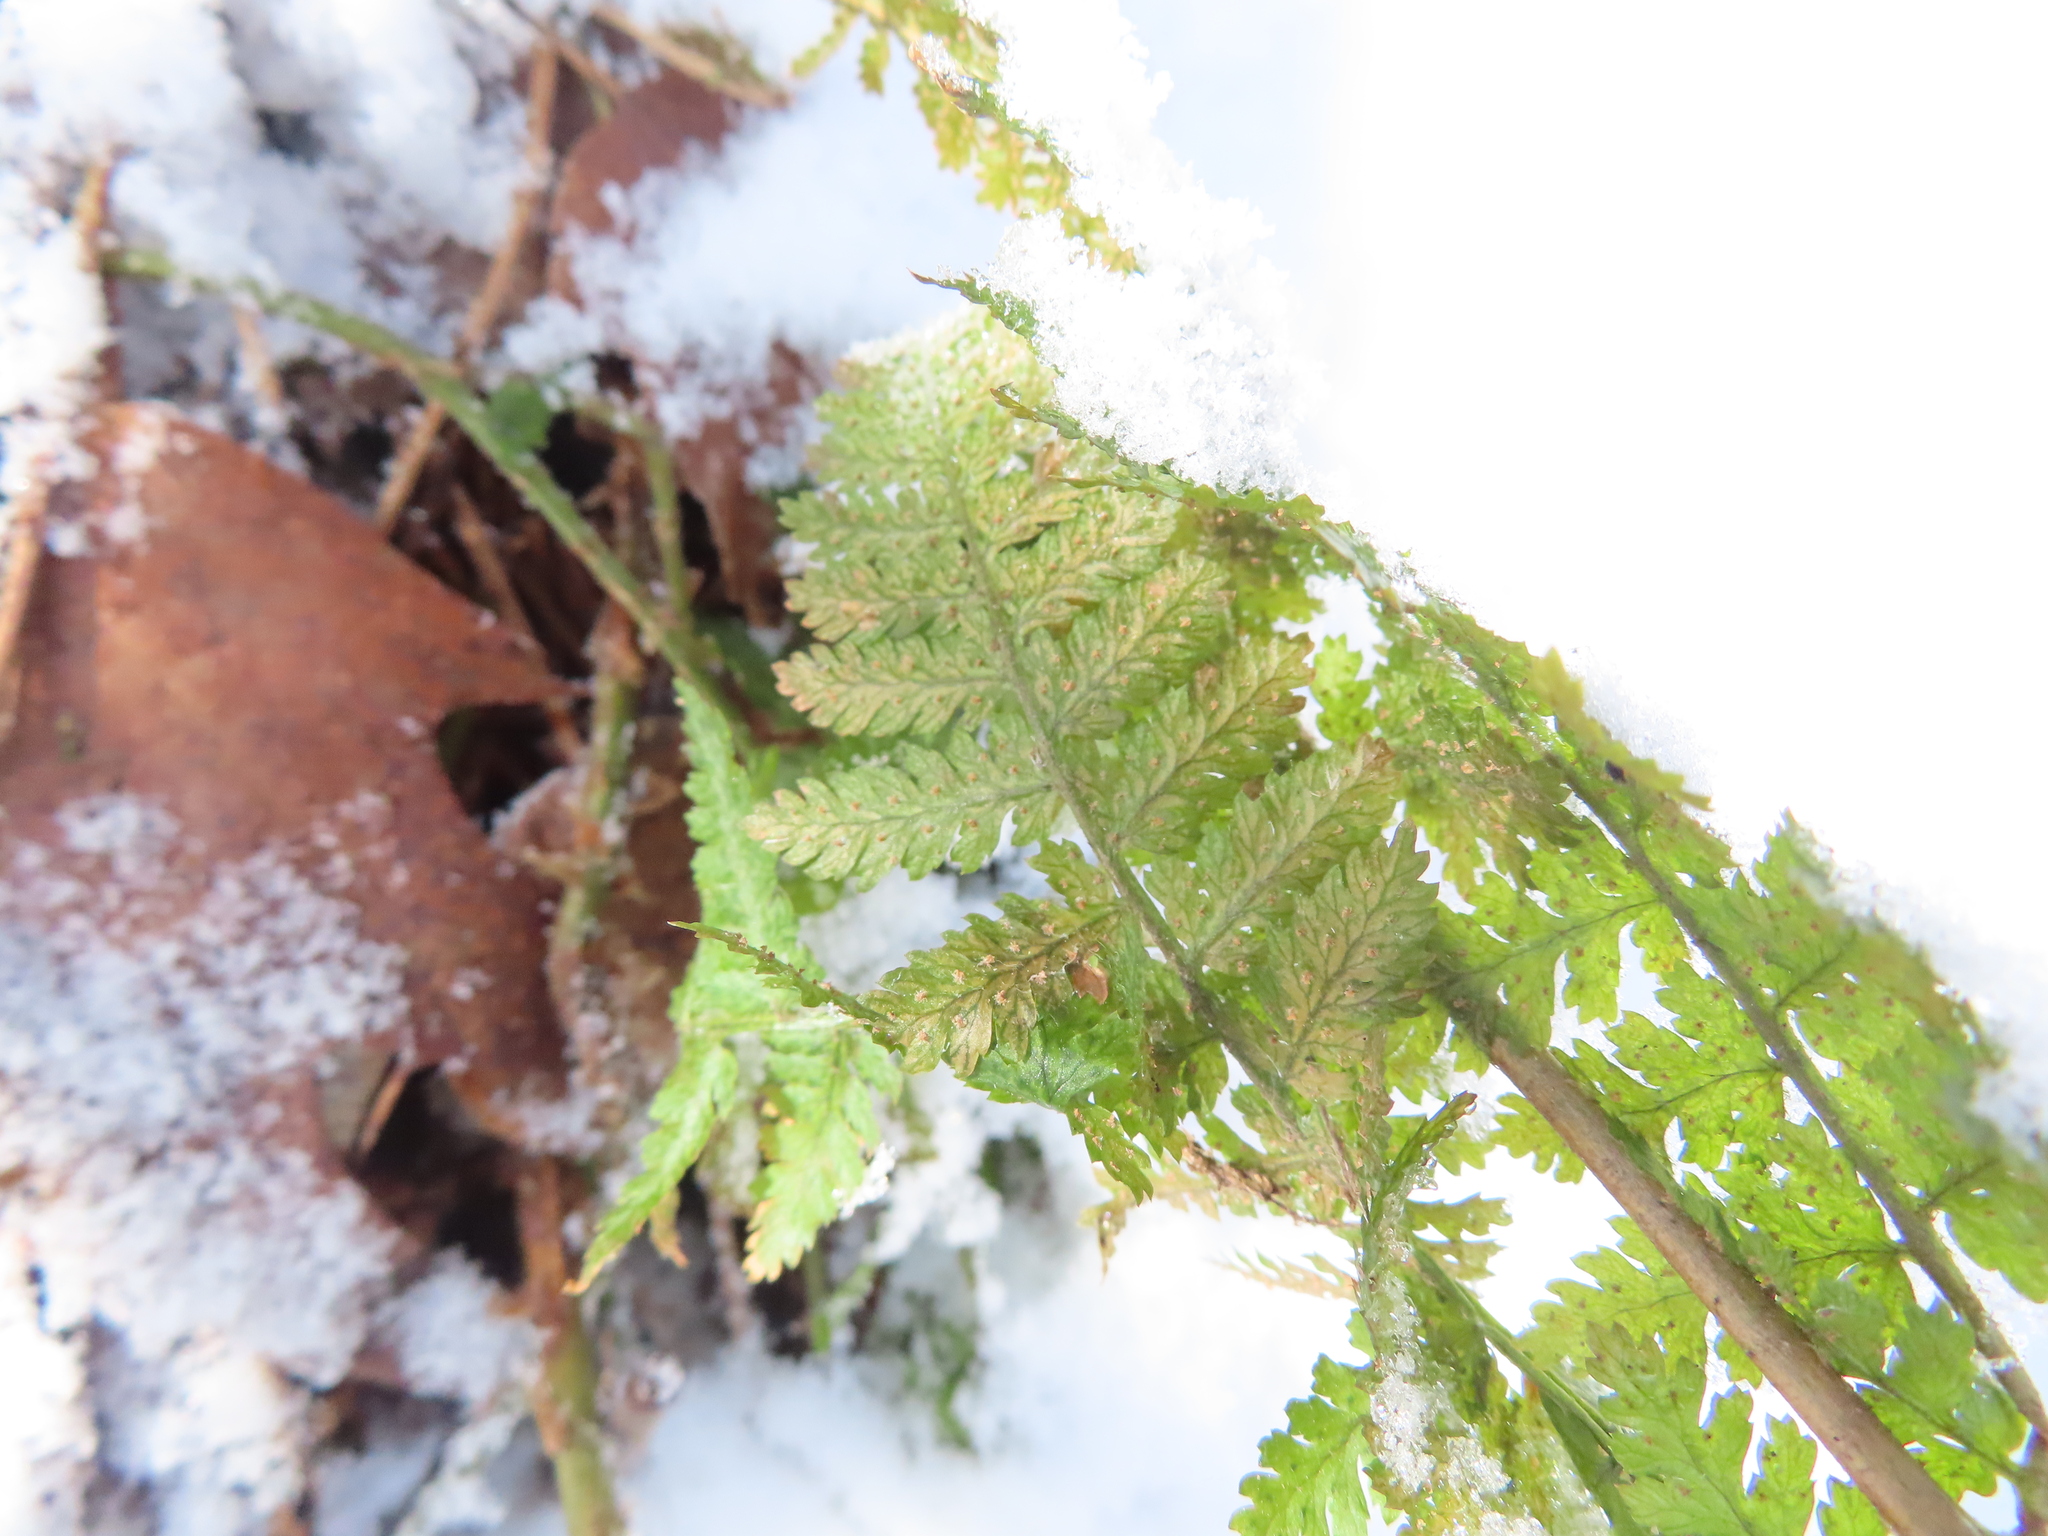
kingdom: Plantae
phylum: Tracheophyta
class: Polypodiopsida
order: Polypodiales
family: Dryopteridaceae
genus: Dryopteris
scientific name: Dryopteris intermedia
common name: Evergreen wood fern
